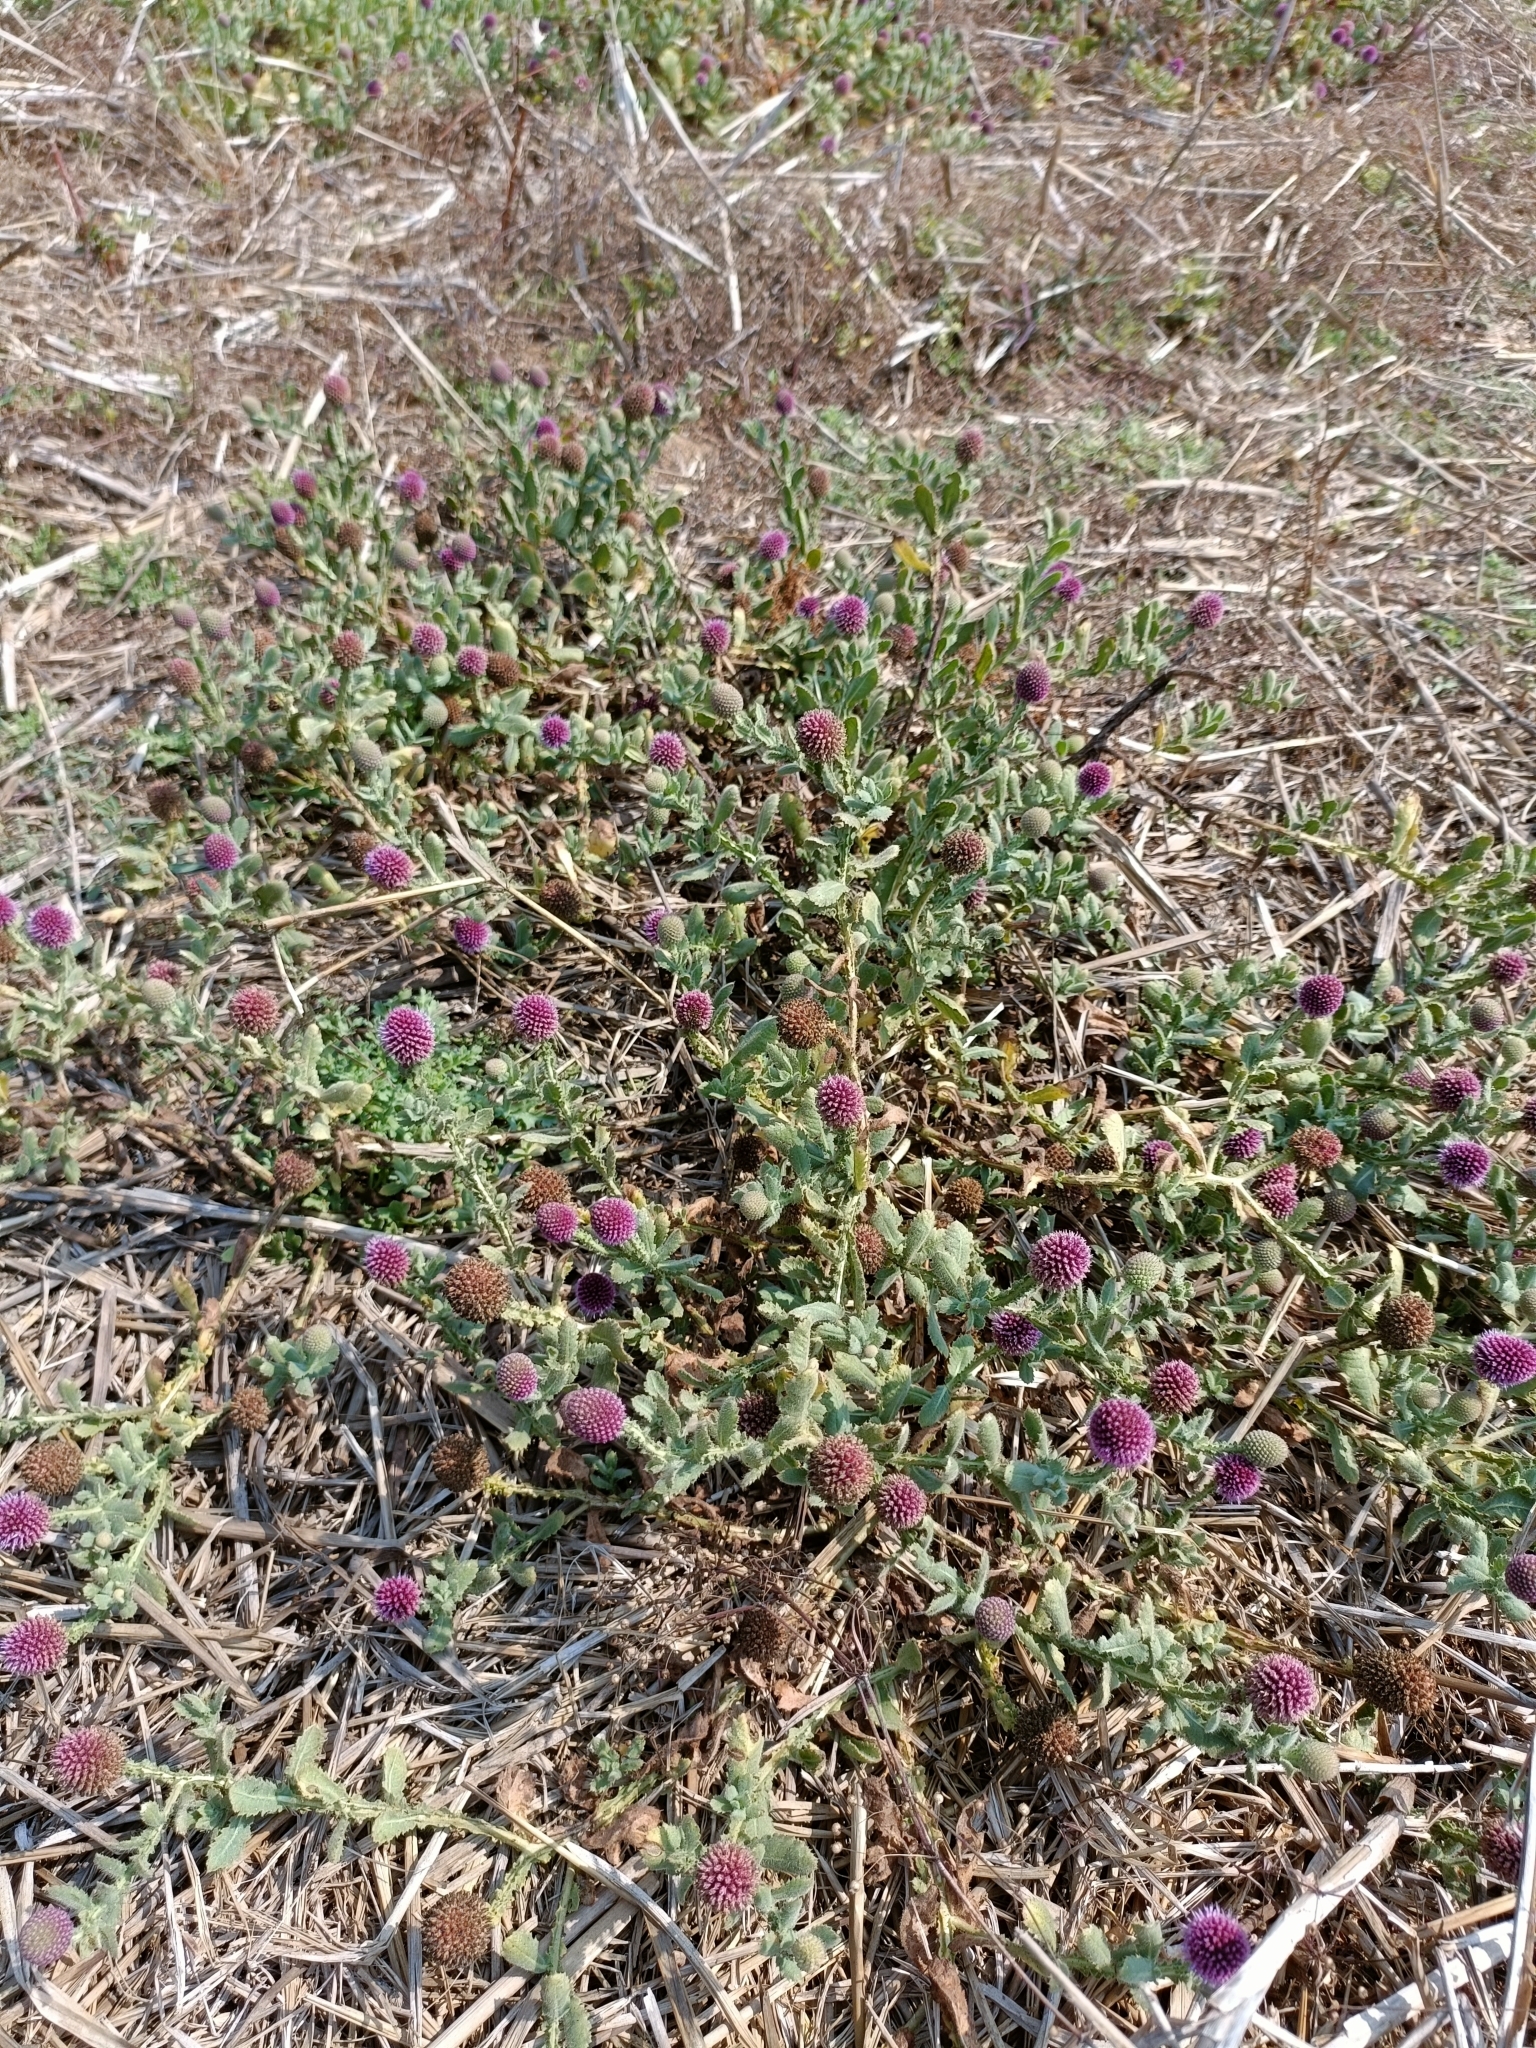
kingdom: Plantae
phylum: Tracheophyta
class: Magnoliopsida
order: Asterales
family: Asteraceae
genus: Sphaeranthus
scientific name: Sphaeranthus indicus
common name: East indian globe thistle
